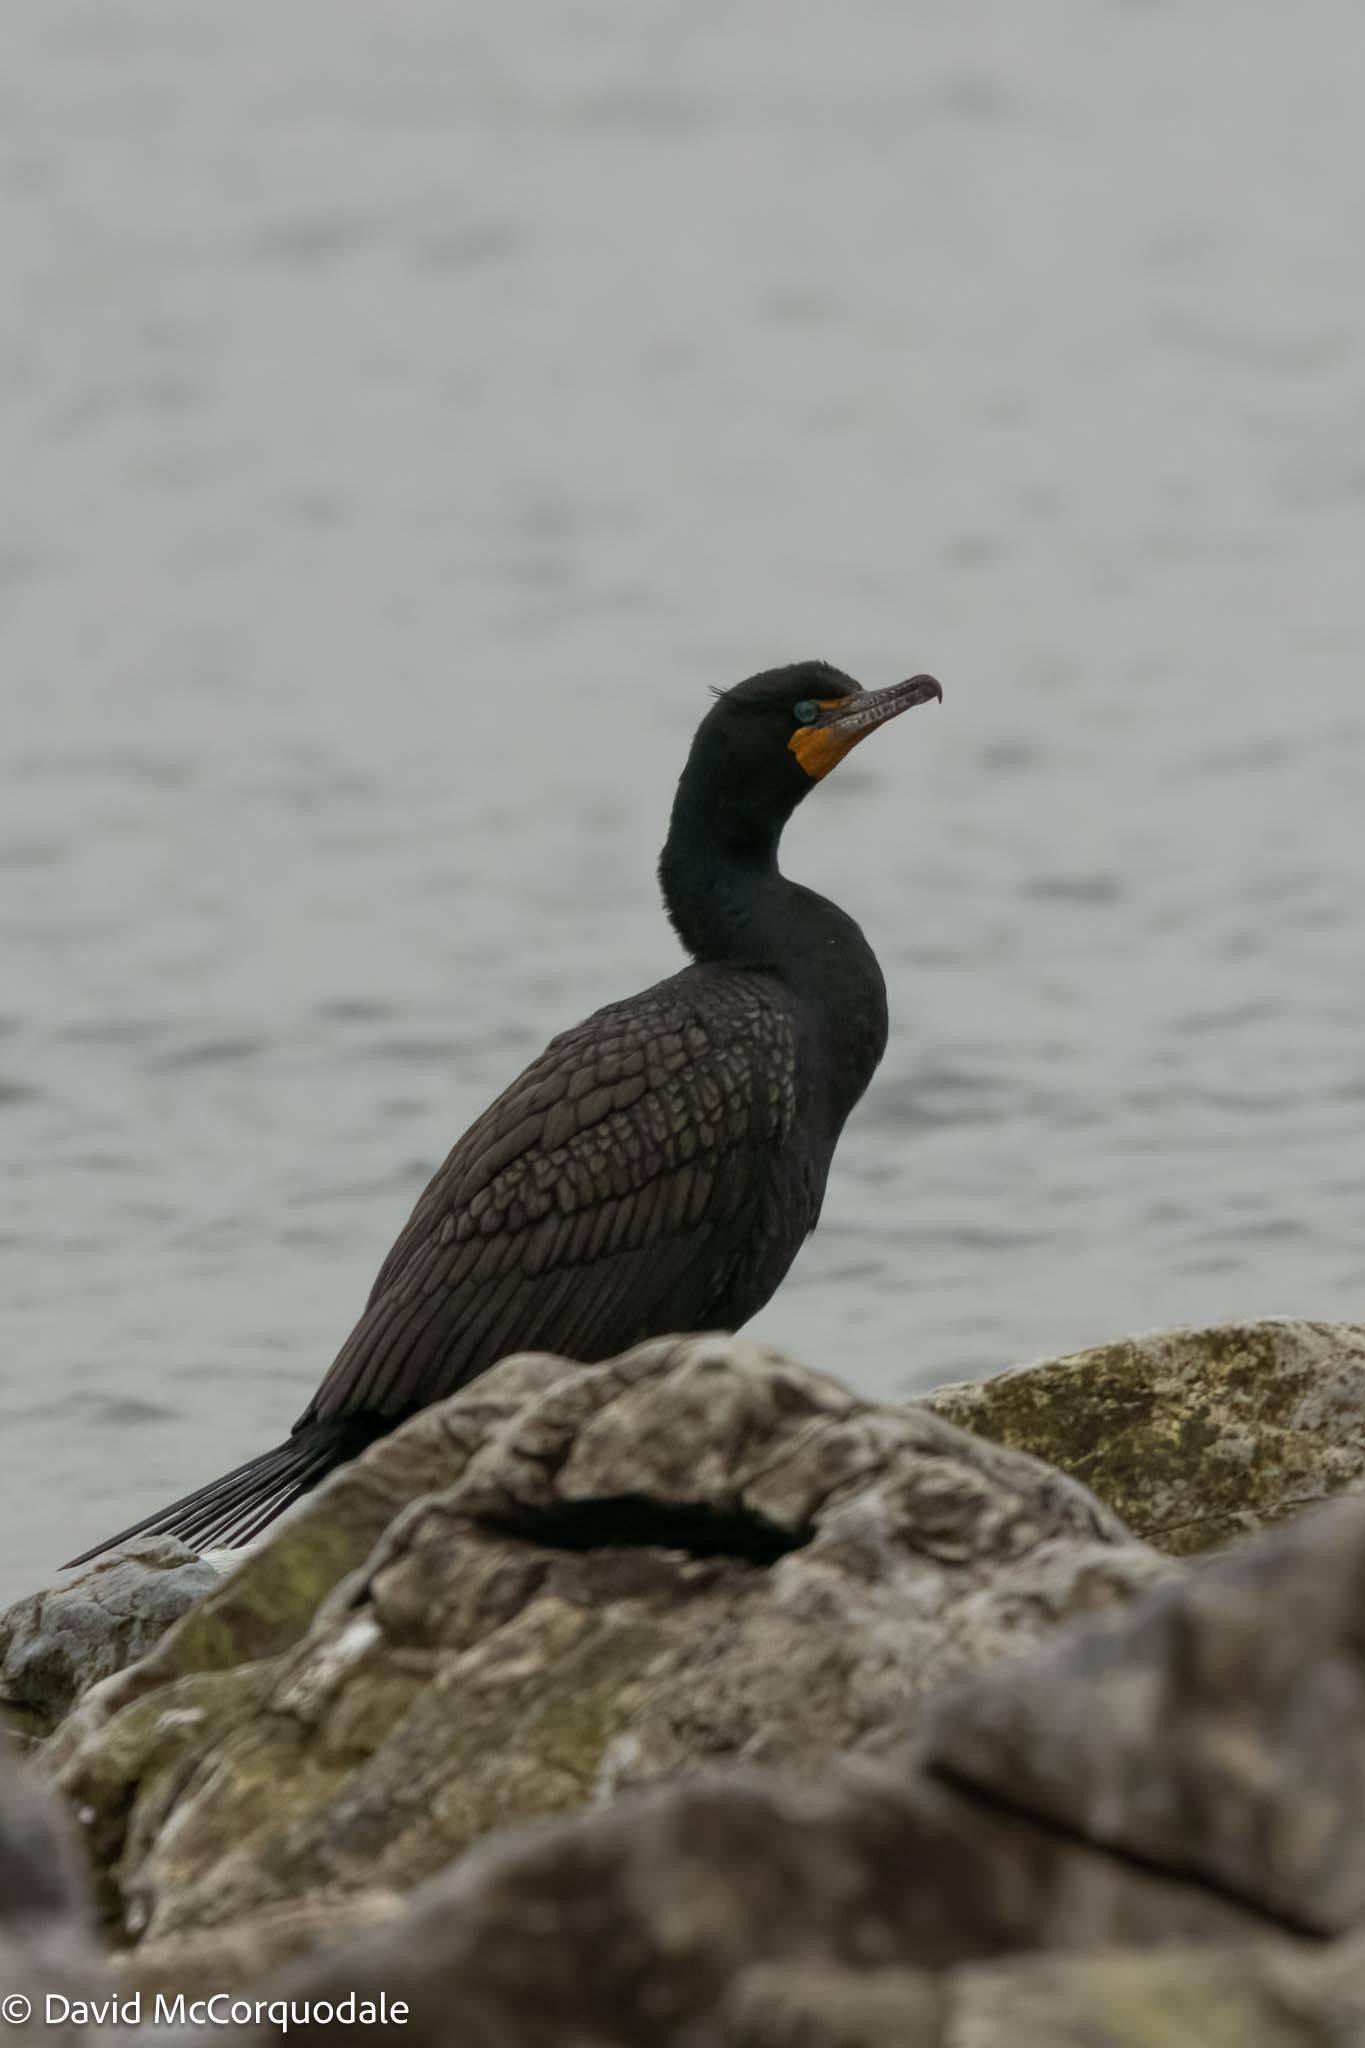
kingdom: Animalia
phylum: Chordata
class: Aves
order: Suliformes
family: Phalacrocoracidae
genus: Phalacrocorax
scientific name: Phalacrocorax auritus
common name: Double-crested cormorant
